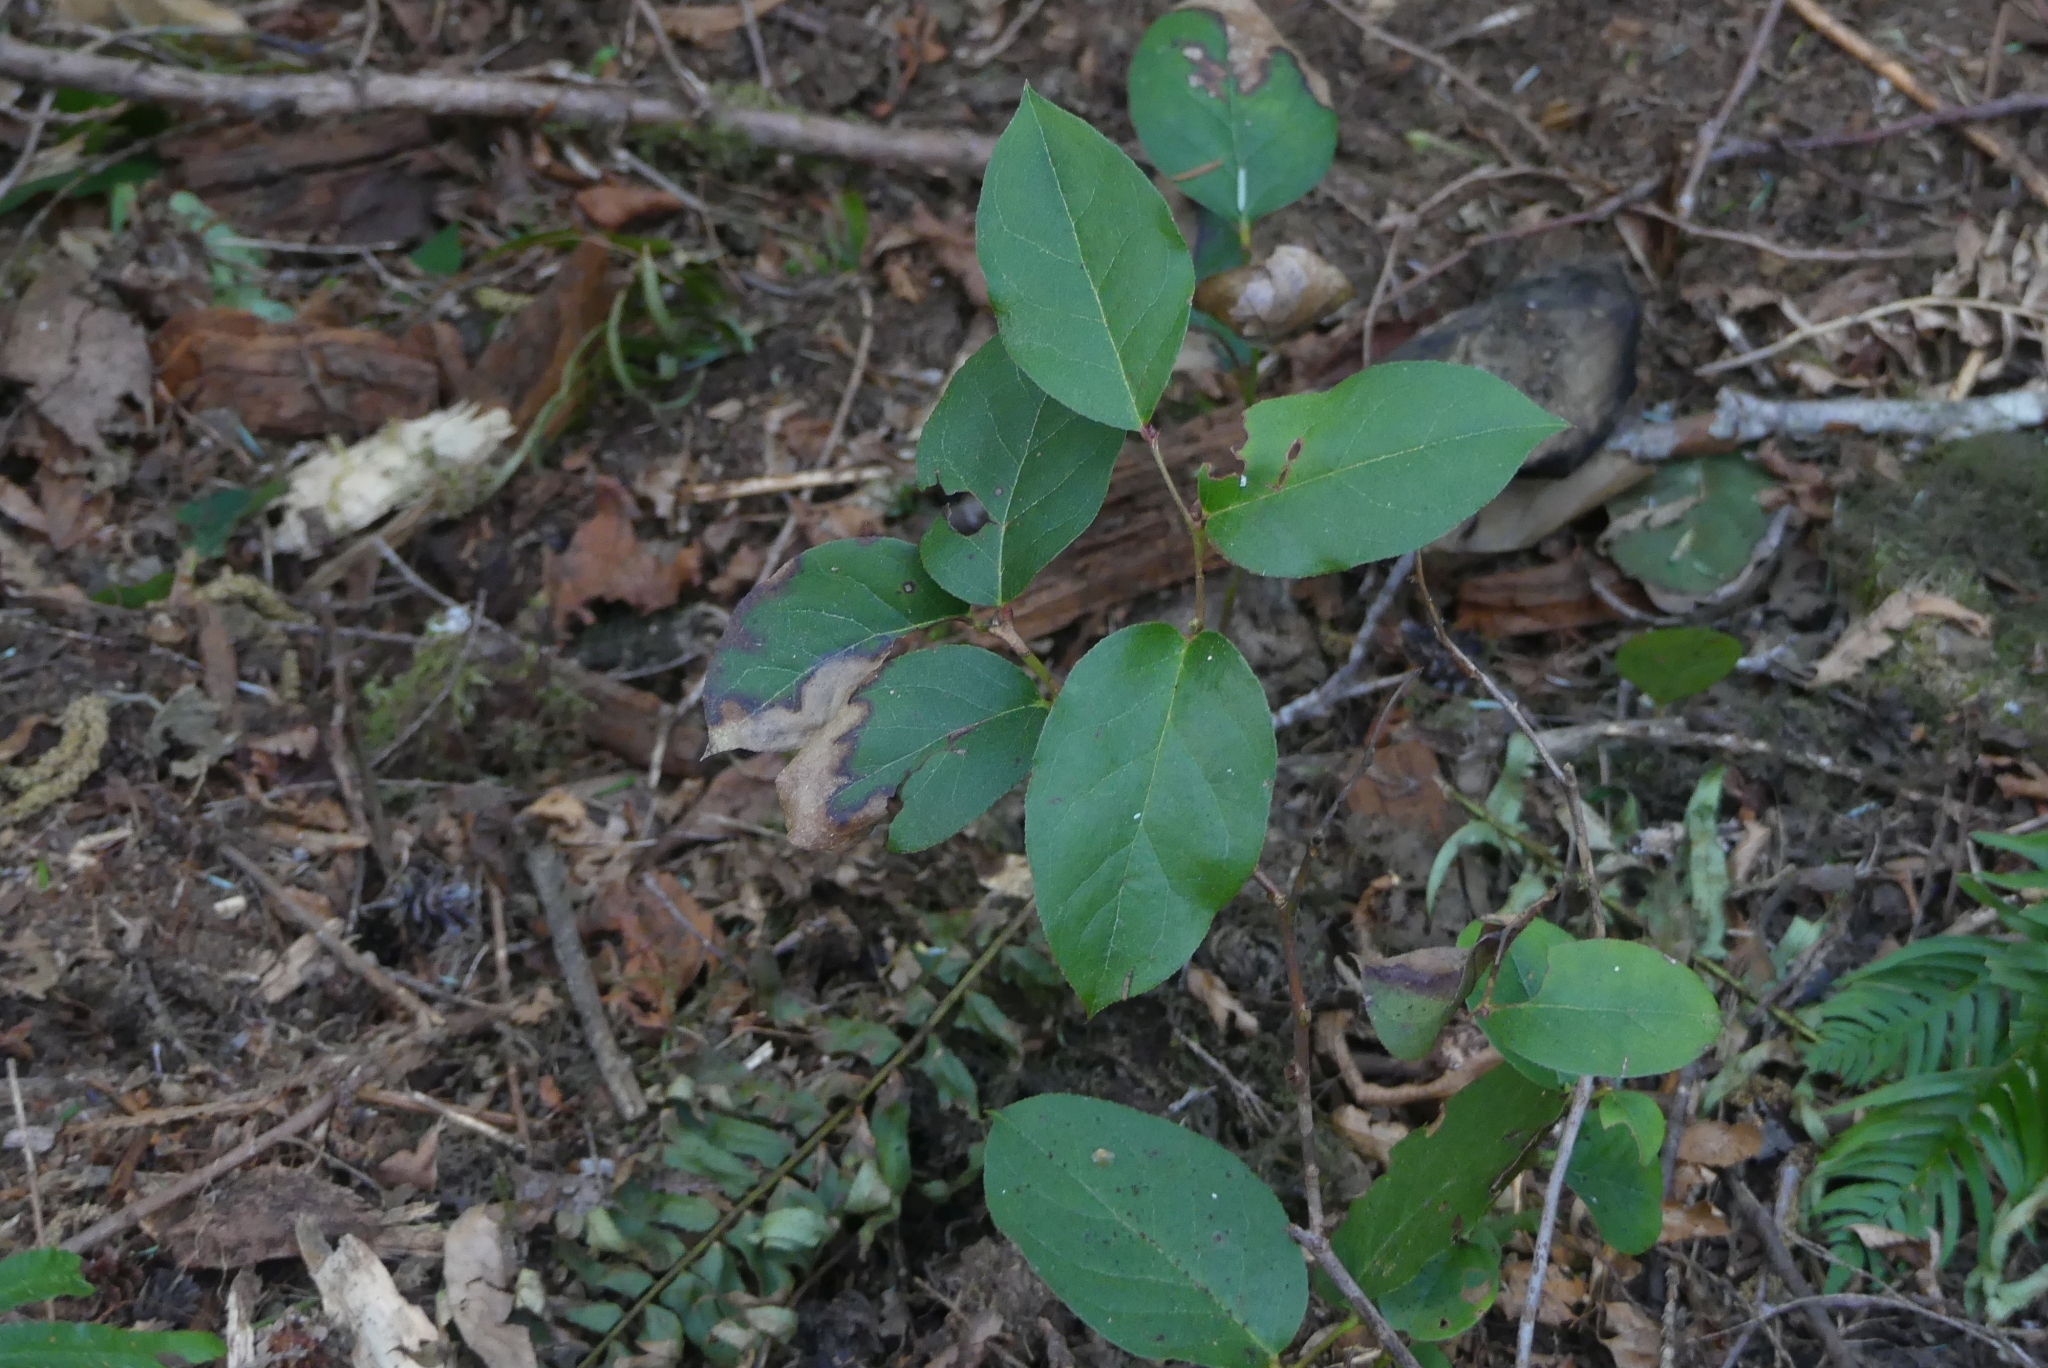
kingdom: Plantae
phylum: Tracheophyta
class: Magnoliopsida
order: Ericales
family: Ericaceae
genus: Gaultheria
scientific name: Gaultheria shallon
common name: Shallon
